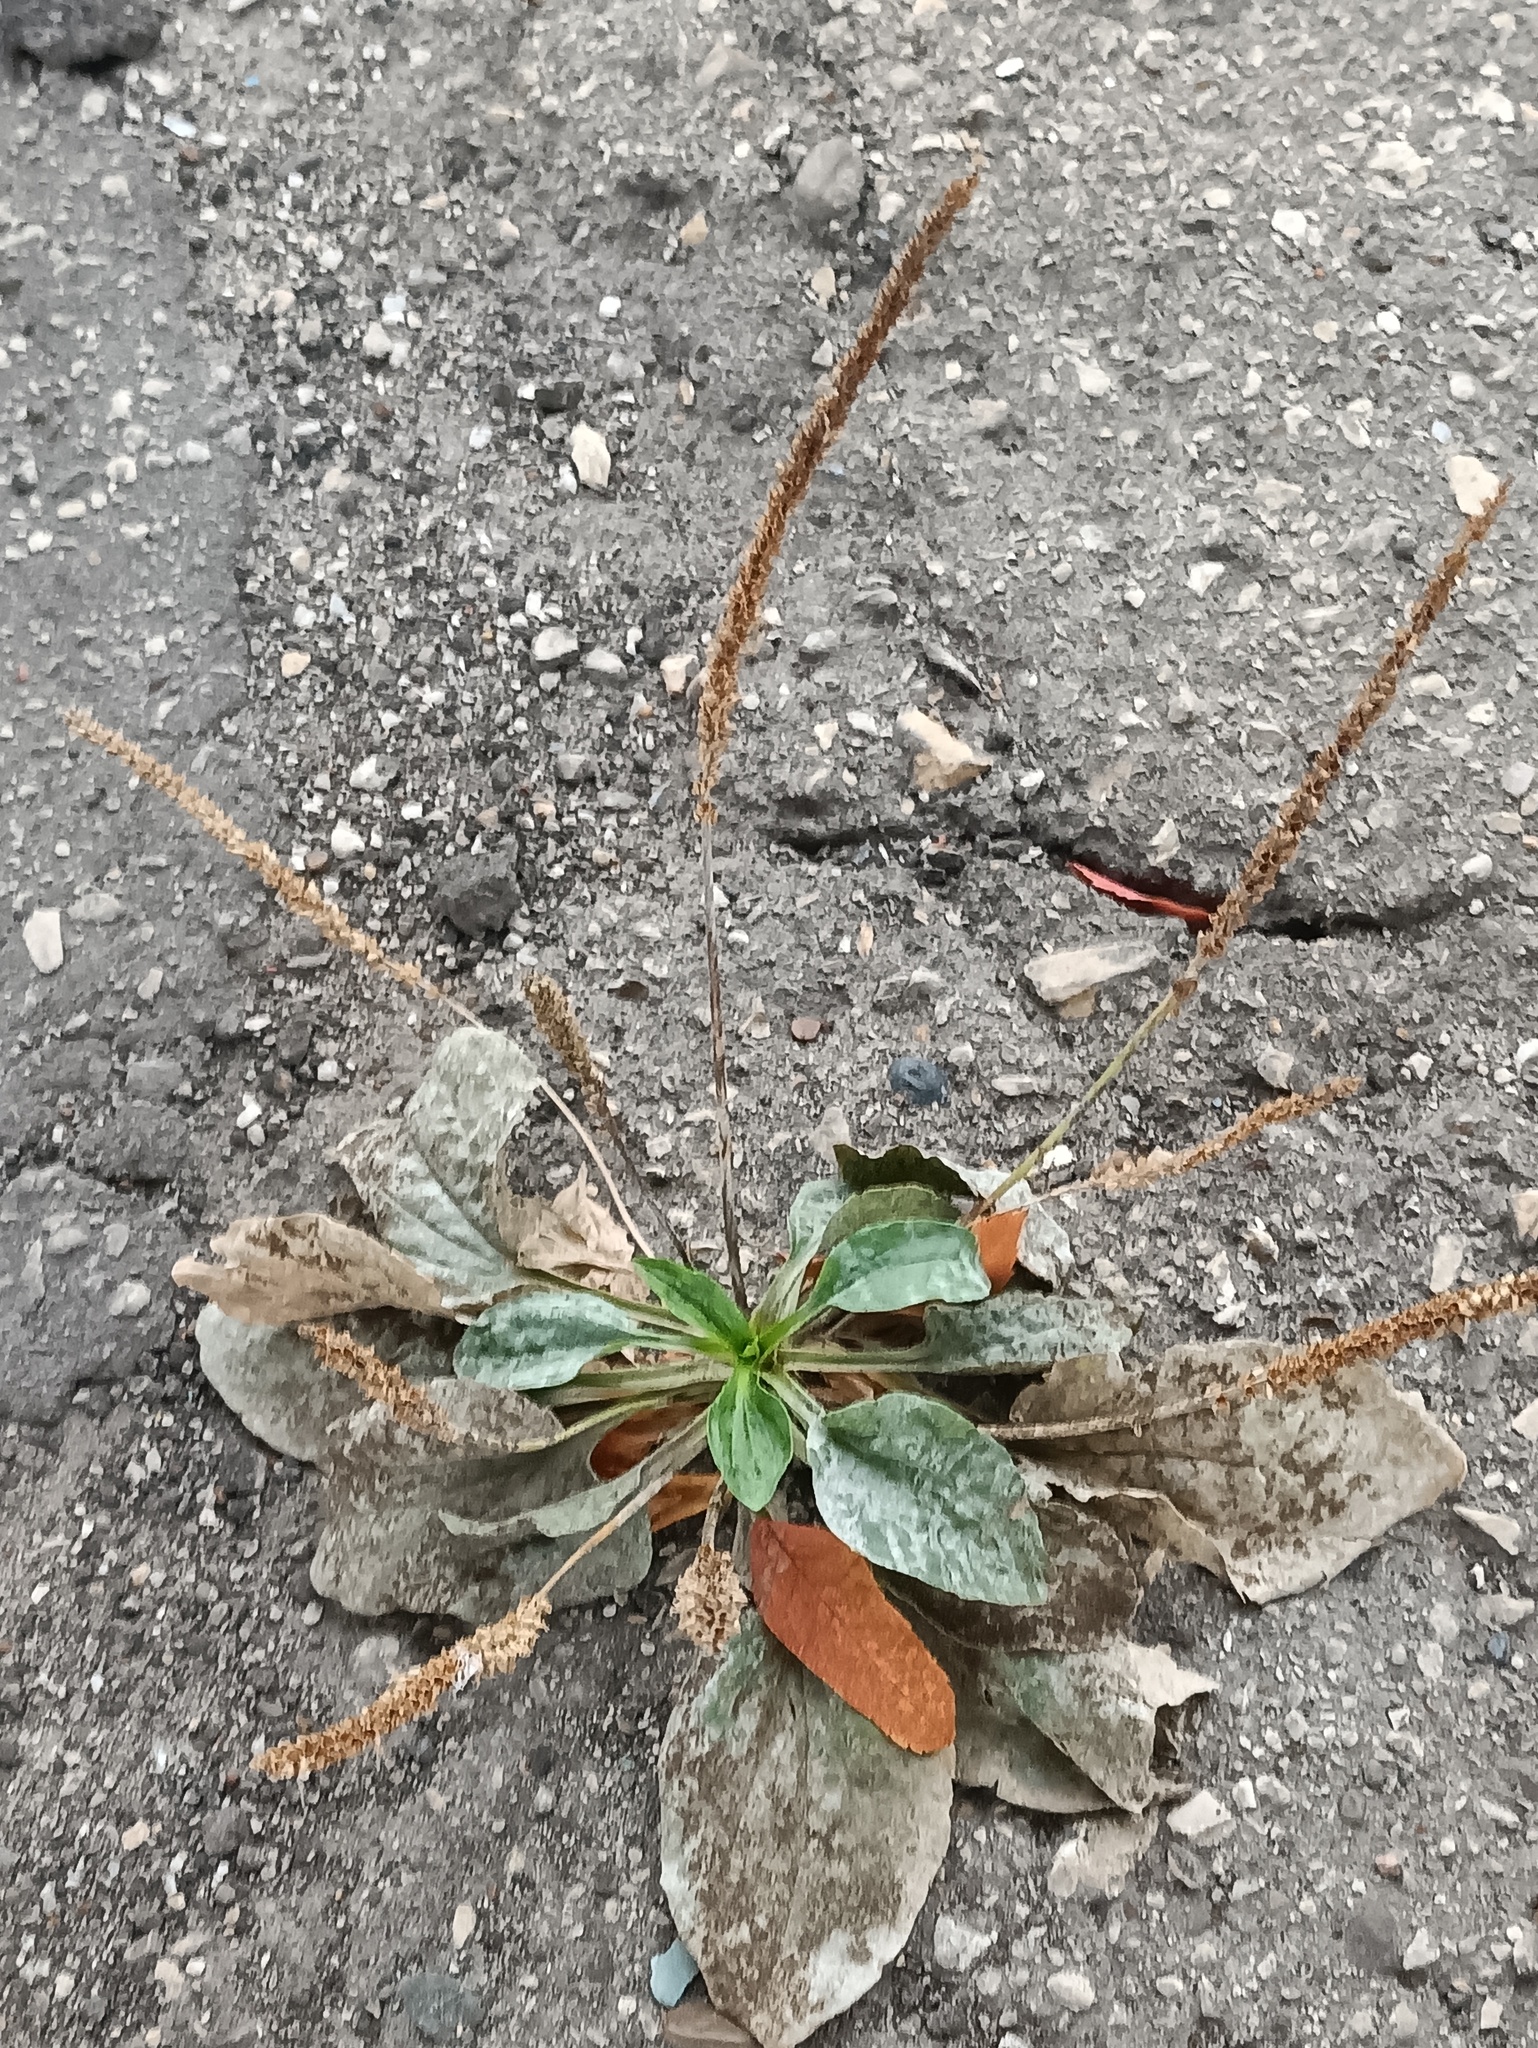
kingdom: Plantae
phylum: Tracheophyta
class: Magnoliopsida
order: Lamiales
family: Plantaginaceae
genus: Plantago
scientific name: Plantago major
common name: Common plantain
